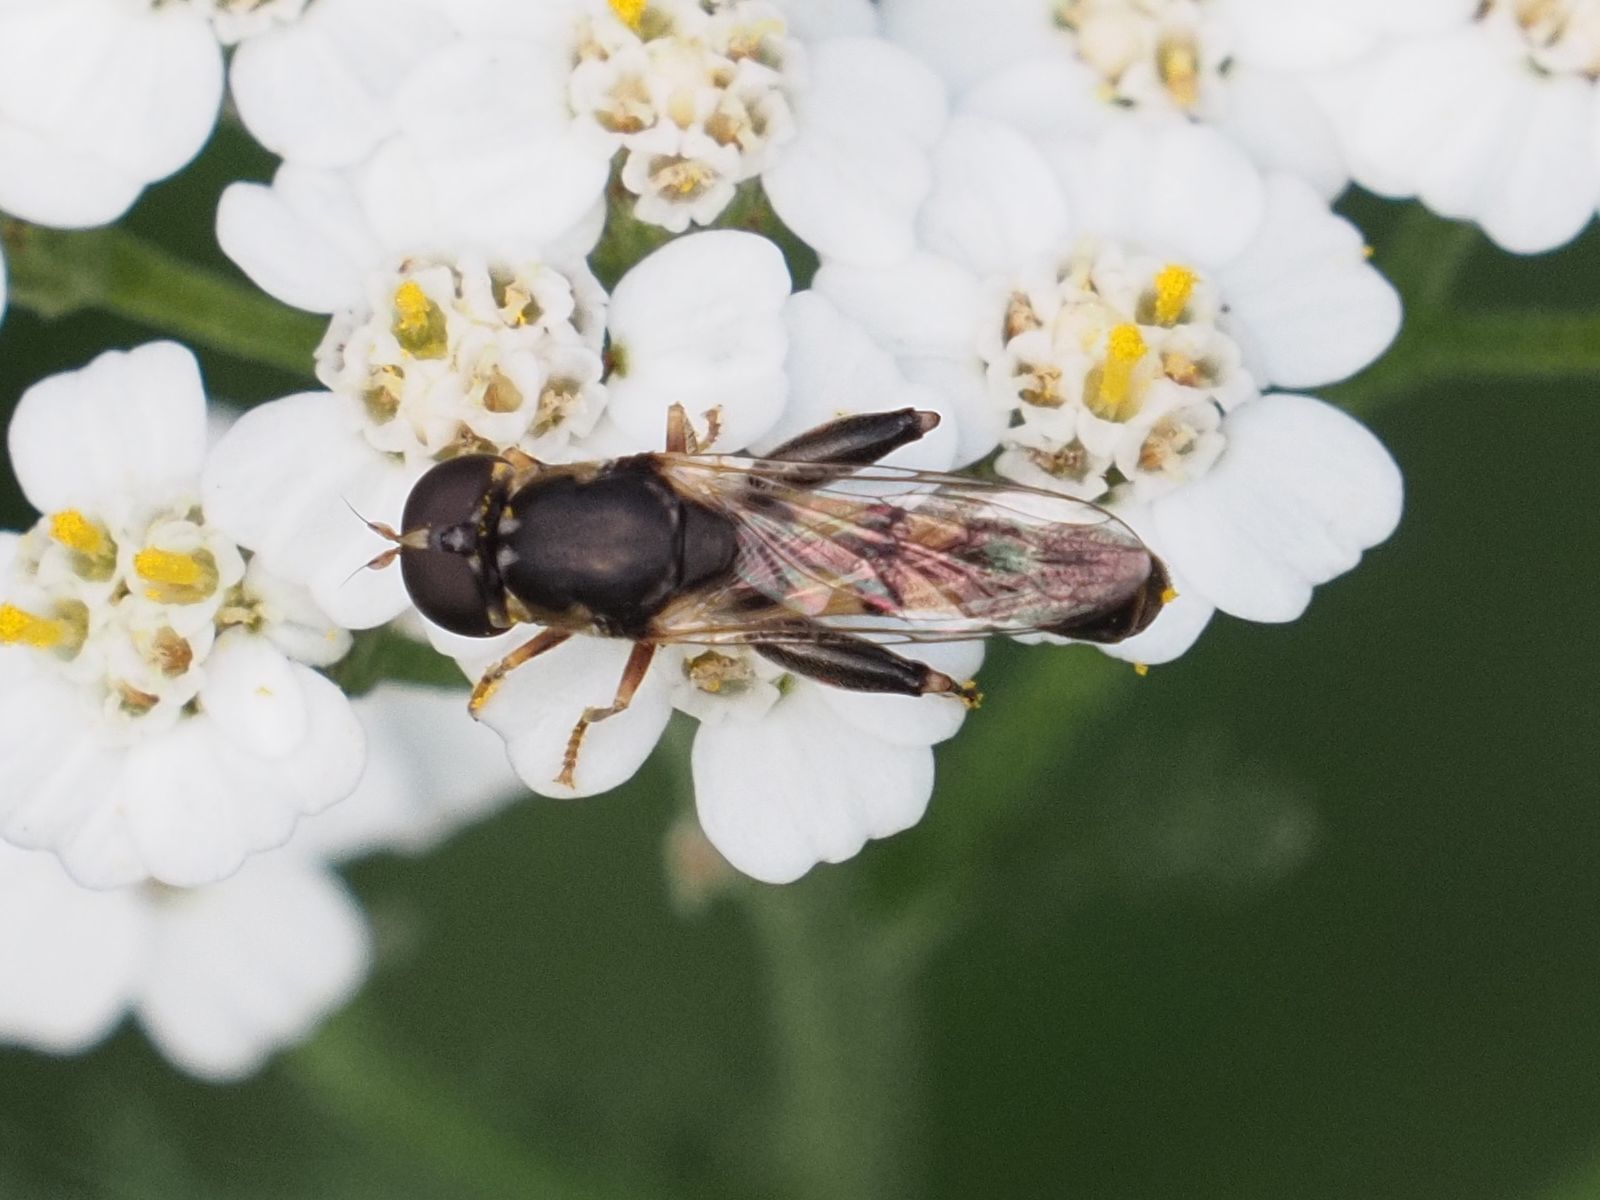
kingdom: Animalia
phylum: Arthropoda
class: Insecta
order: Diptera
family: Syrphidae
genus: Syritta
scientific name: Syritta pipiens
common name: Hover fly
